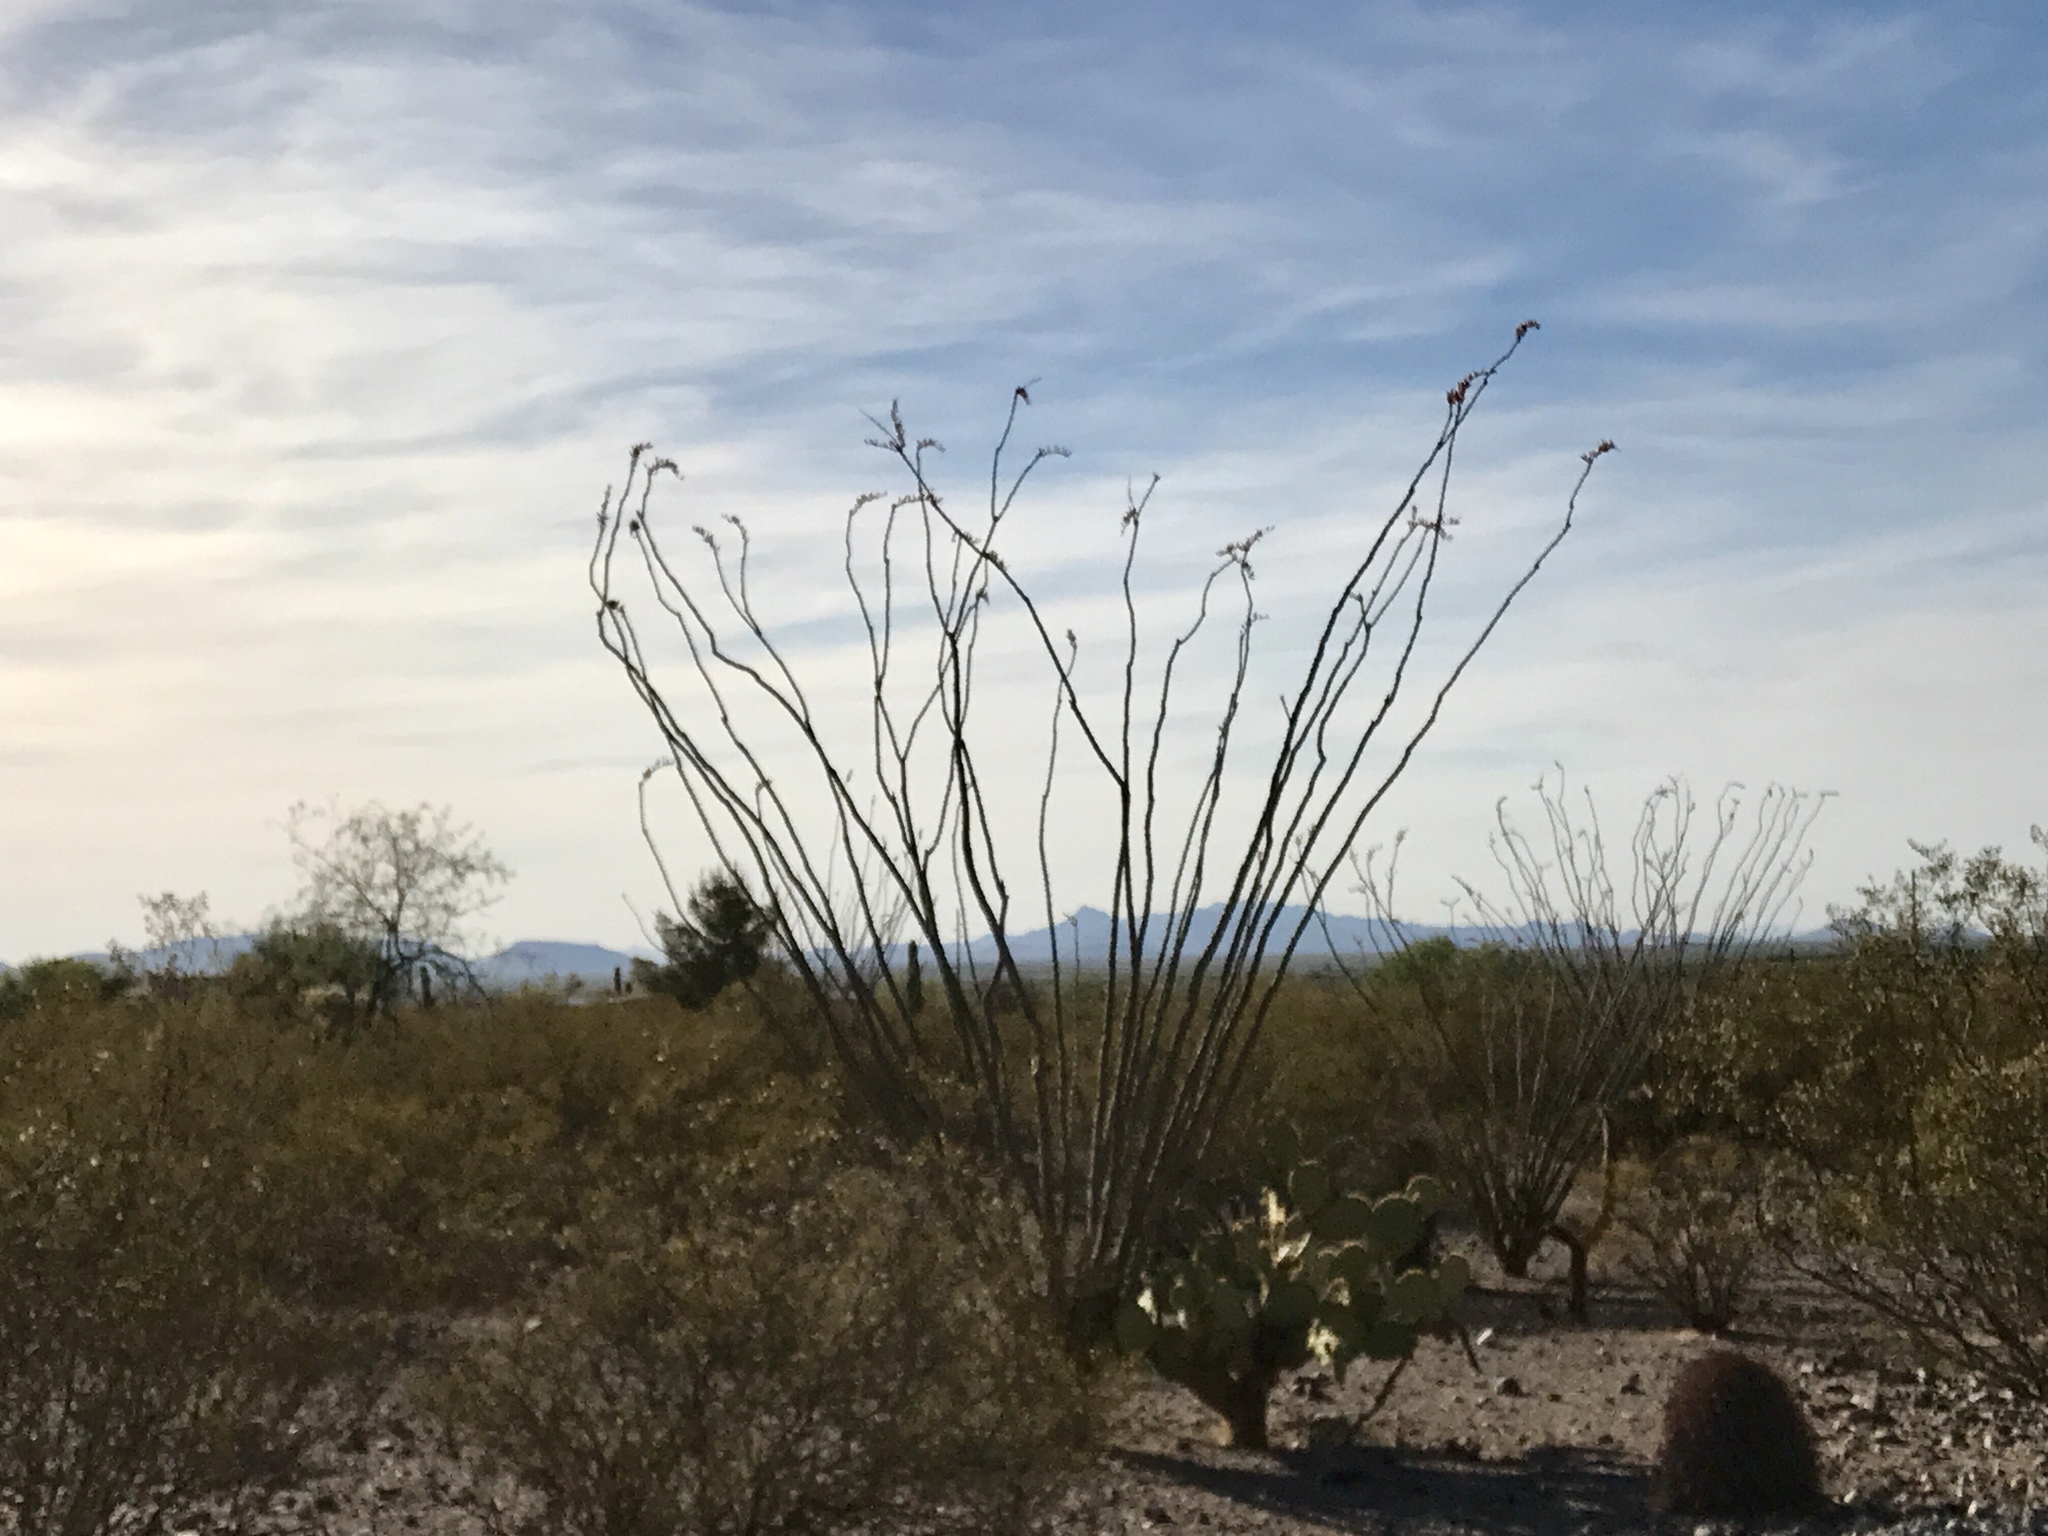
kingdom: Plantae
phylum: Tracheophyta
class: Magnoliopsida
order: Ericales
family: Fouquieriaceae
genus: Fouquieria
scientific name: Fouquieria splendens
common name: Vine-cactus
